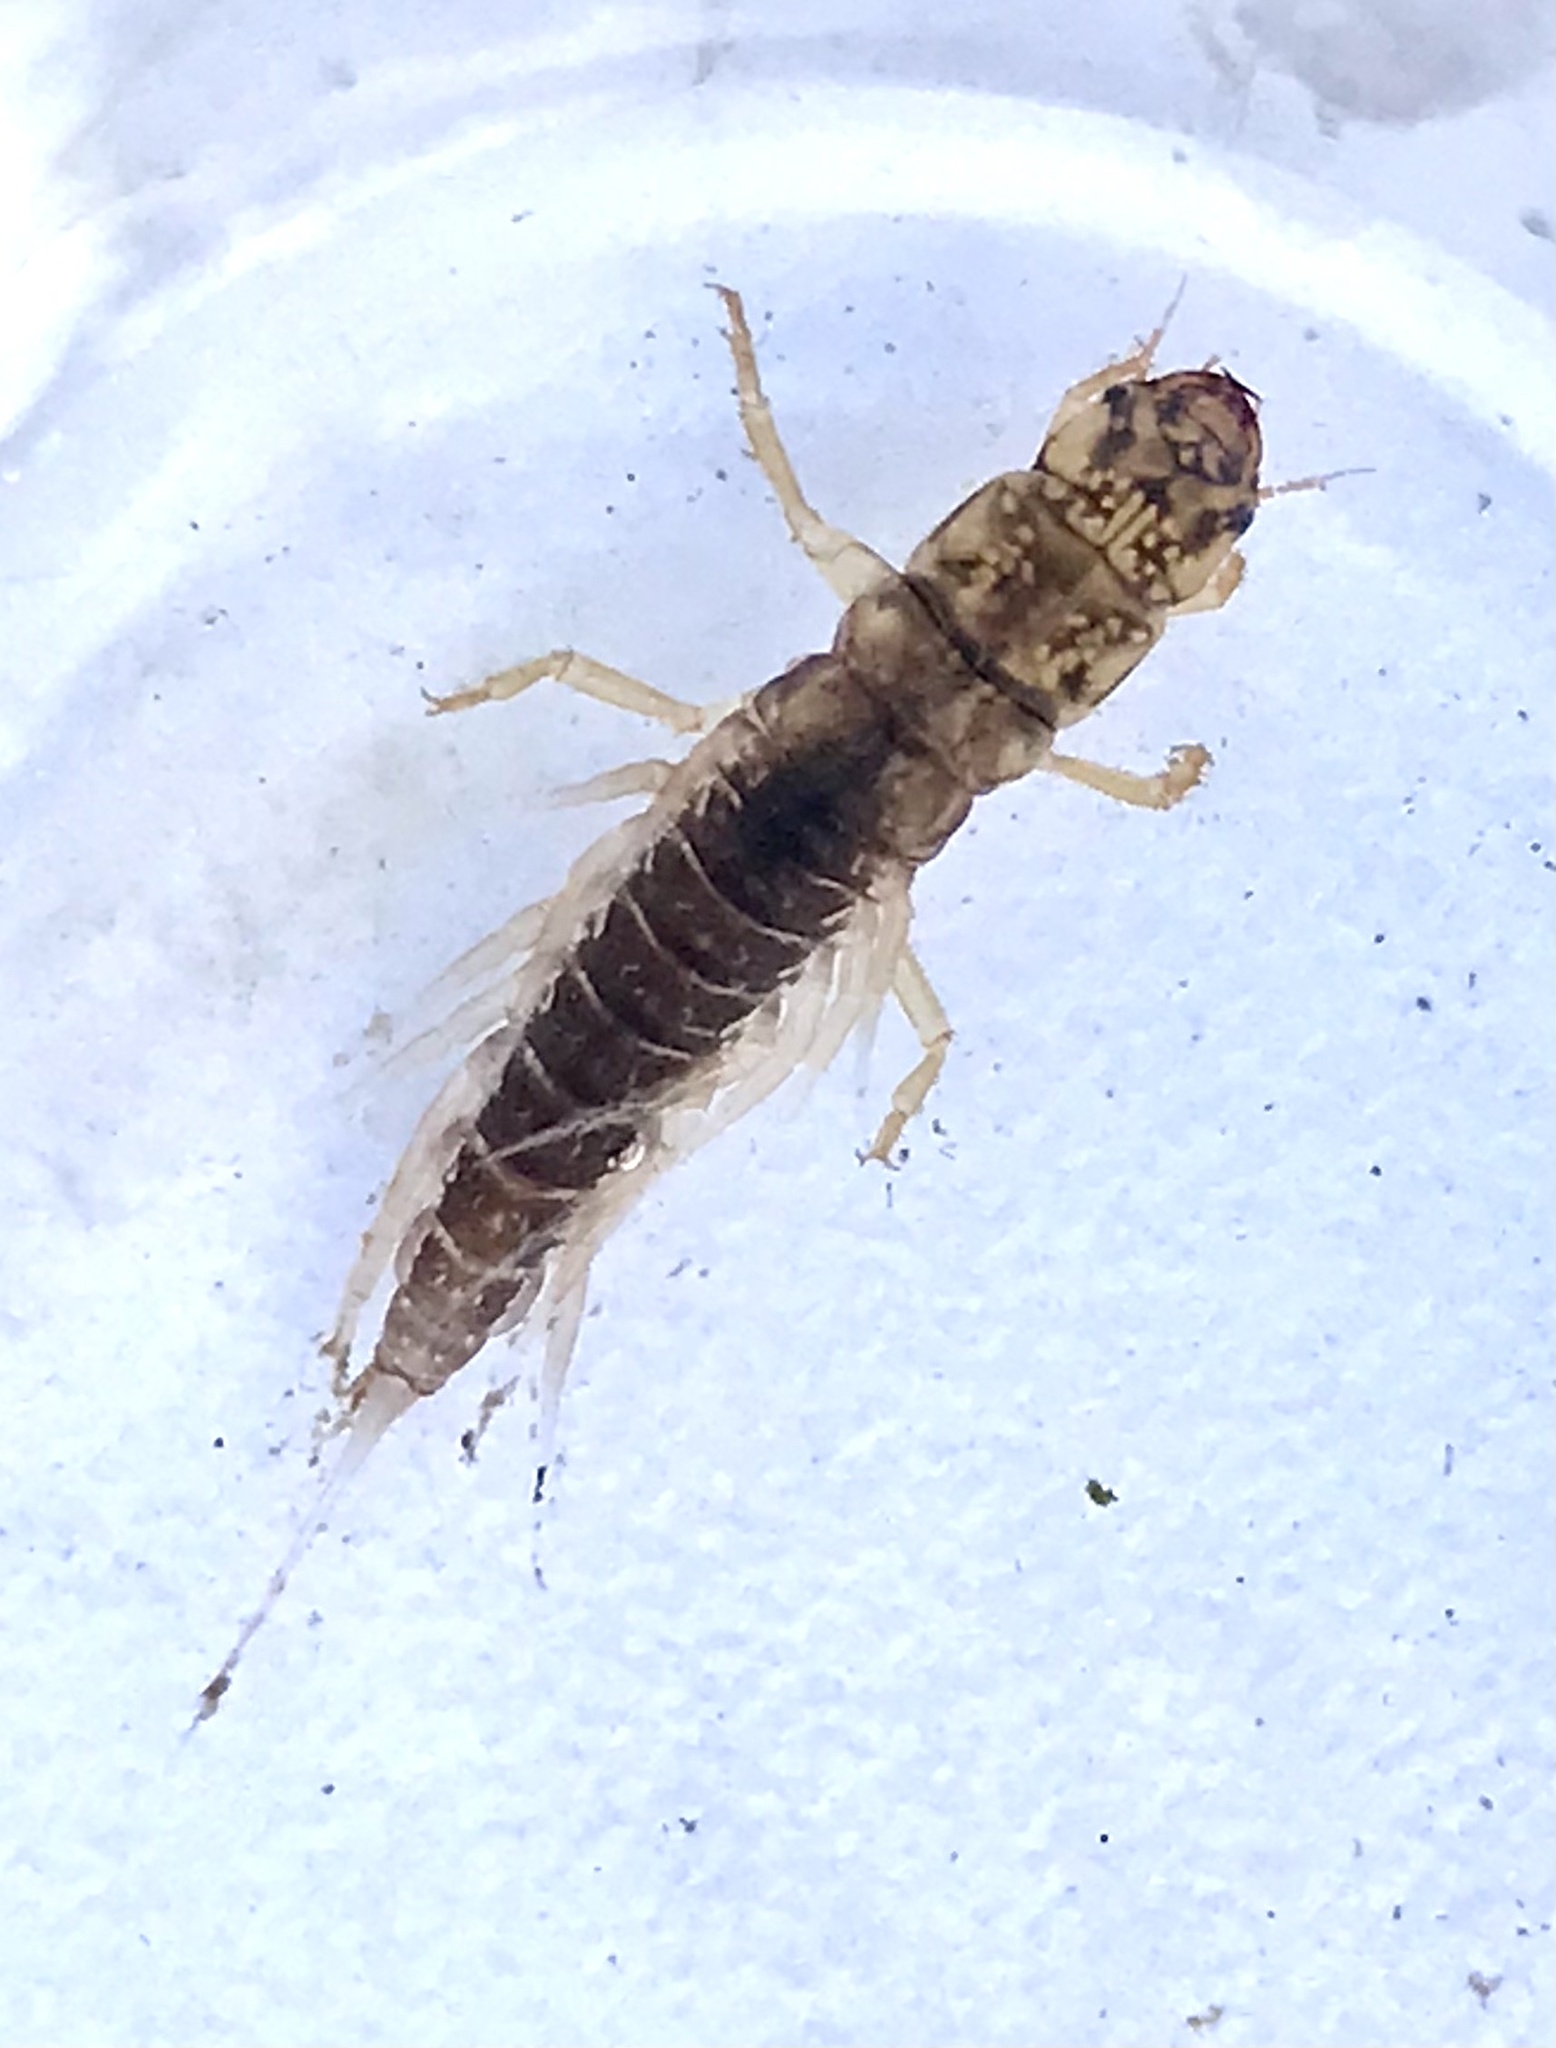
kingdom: Animalia
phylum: Arthropoda
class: Insecta
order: Megaloptera
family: Sialidae
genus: Sialis
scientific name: Sialis lutaria
